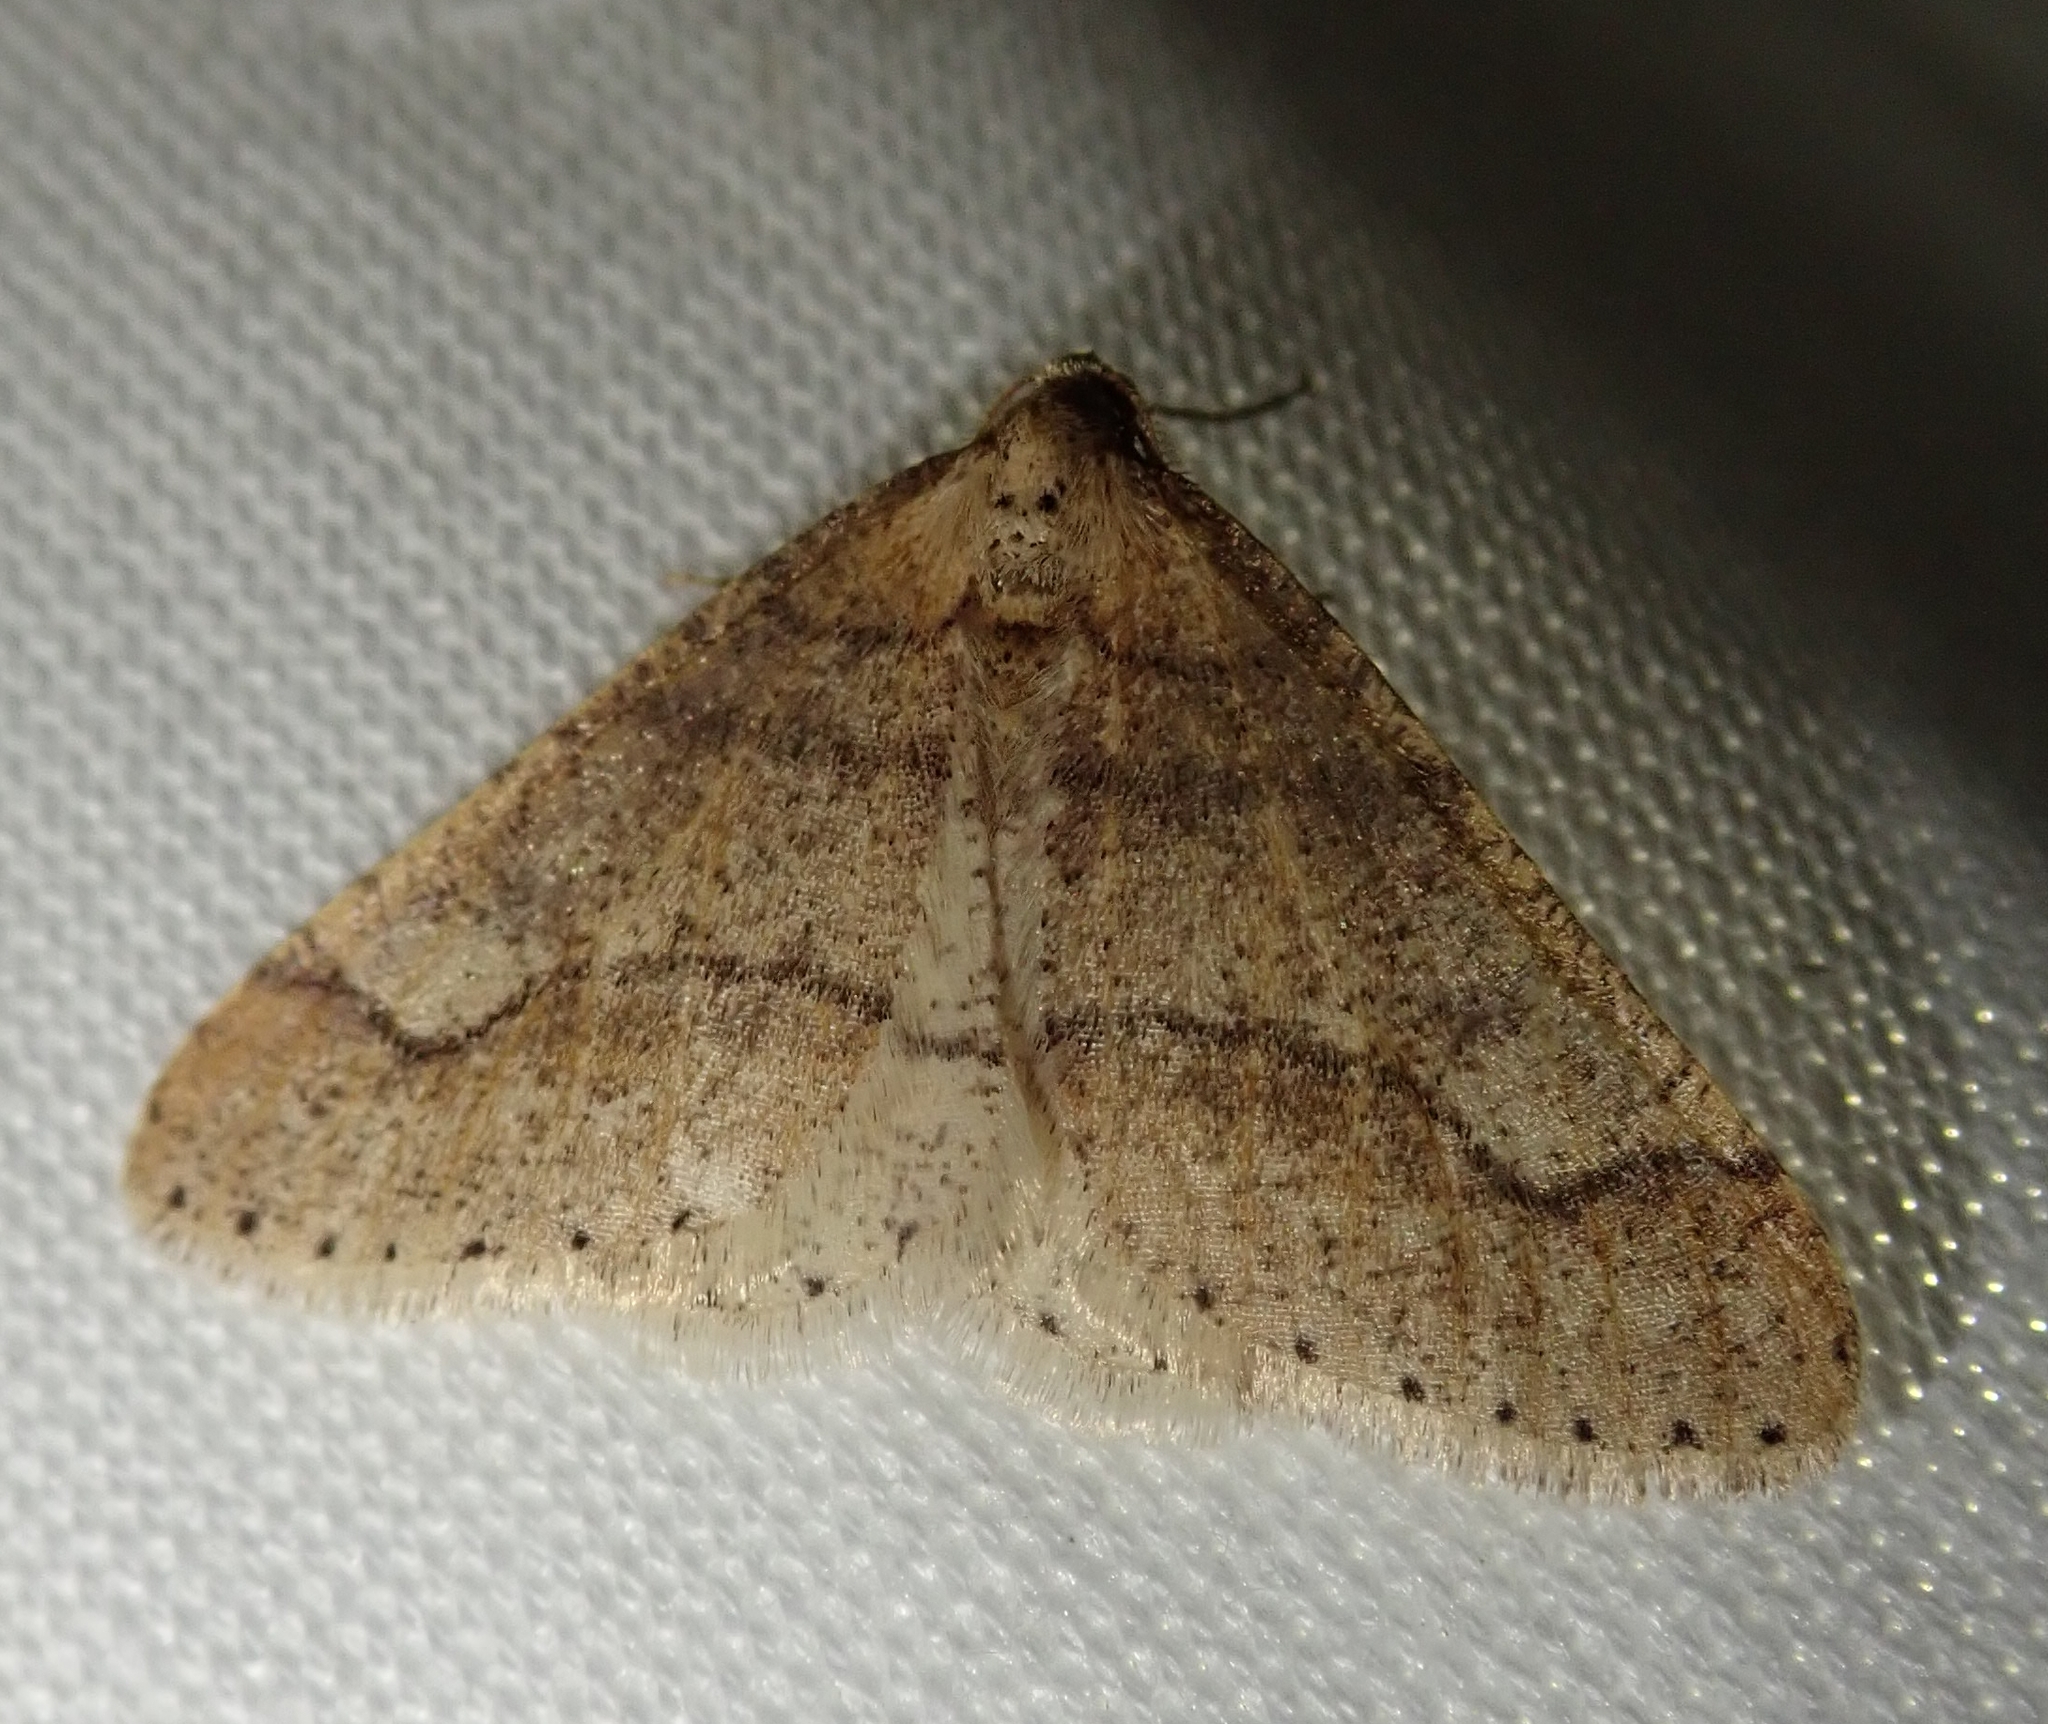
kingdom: Animalia
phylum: Arthropoda
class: Insecta
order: Lepidoptera
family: Geometridae
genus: Agriopis
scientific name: Agriopis marginaria
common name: Dotted border
